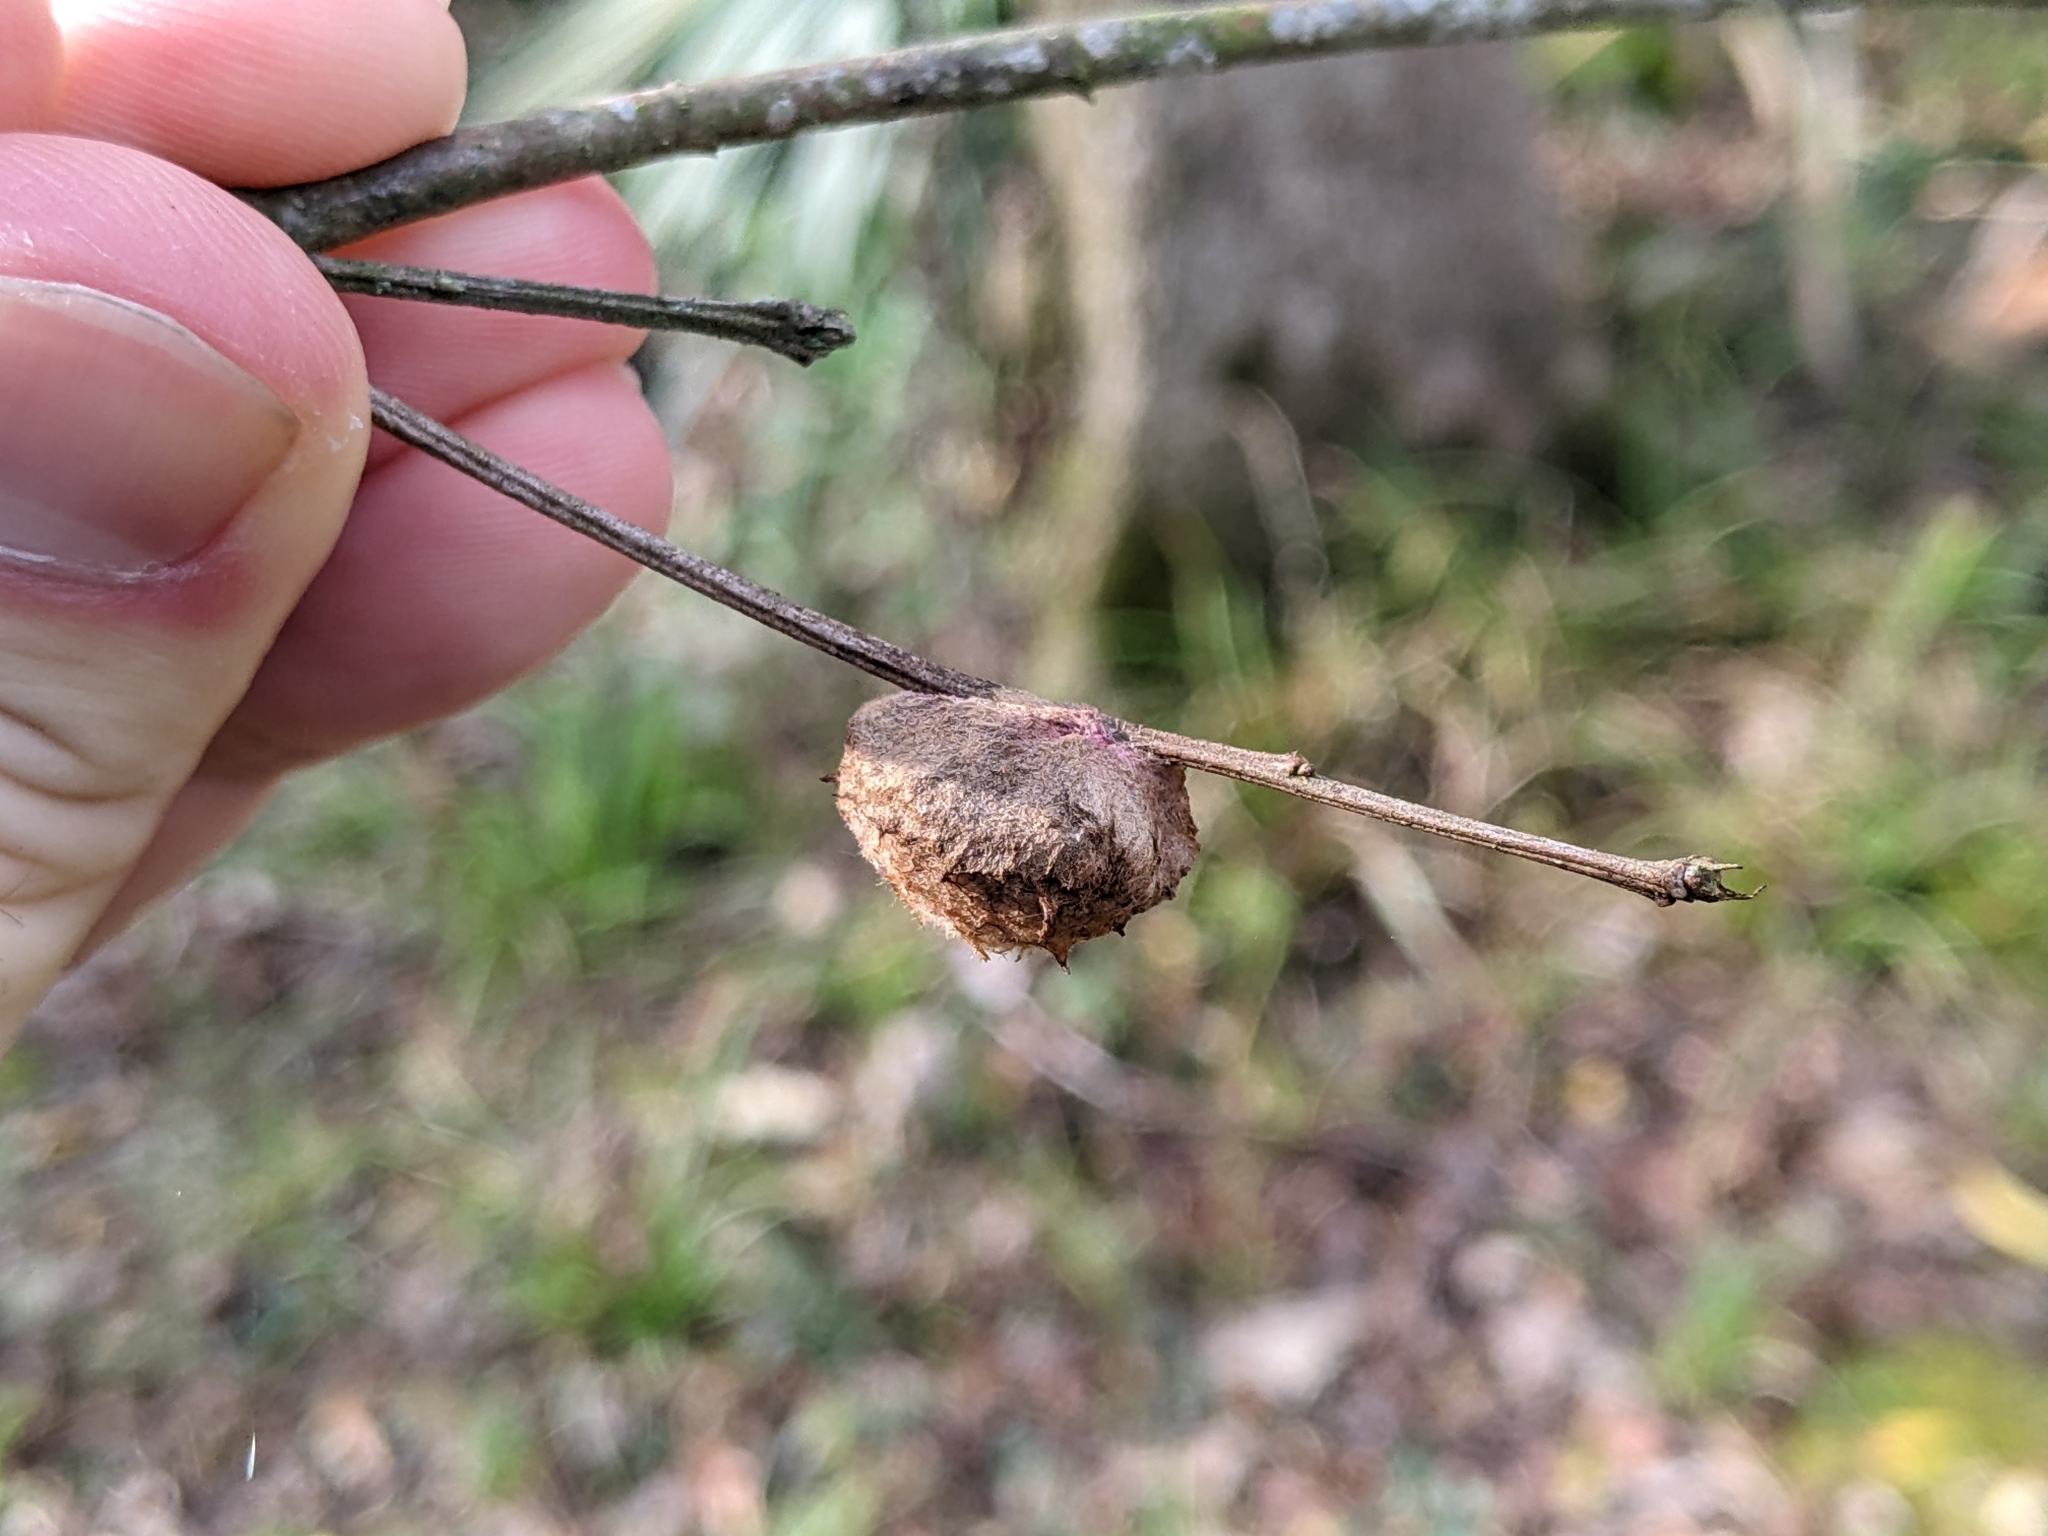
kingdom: Animalia
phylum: Arthropoda
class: Insecta
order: Hymenoptera
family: Cynipidae
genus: Striatoandricus
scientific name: Striatoandricus aciculatus
